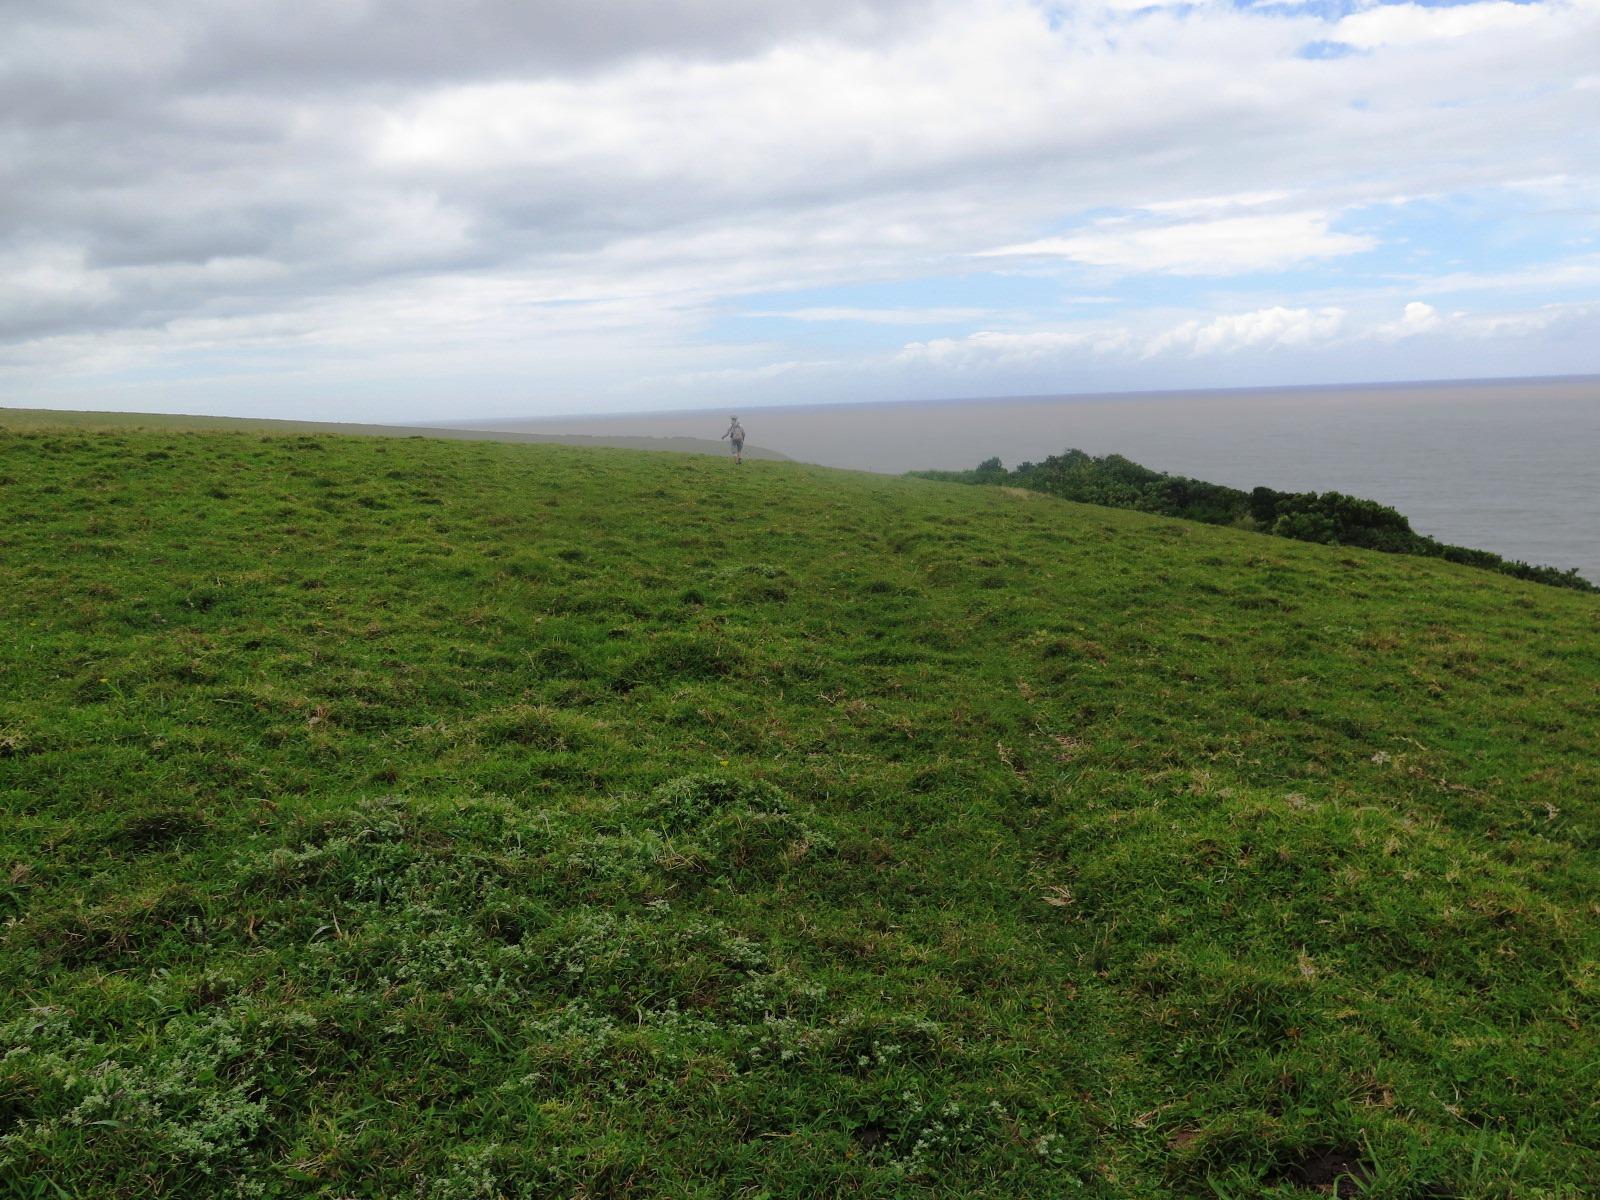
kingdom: Plantae
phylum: Tracheophyta
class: Liliopsida
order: Poales
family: Poaceae
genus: Stenotaphrum
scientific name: Stenotaphrum secundatum
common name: St. augustine grass
